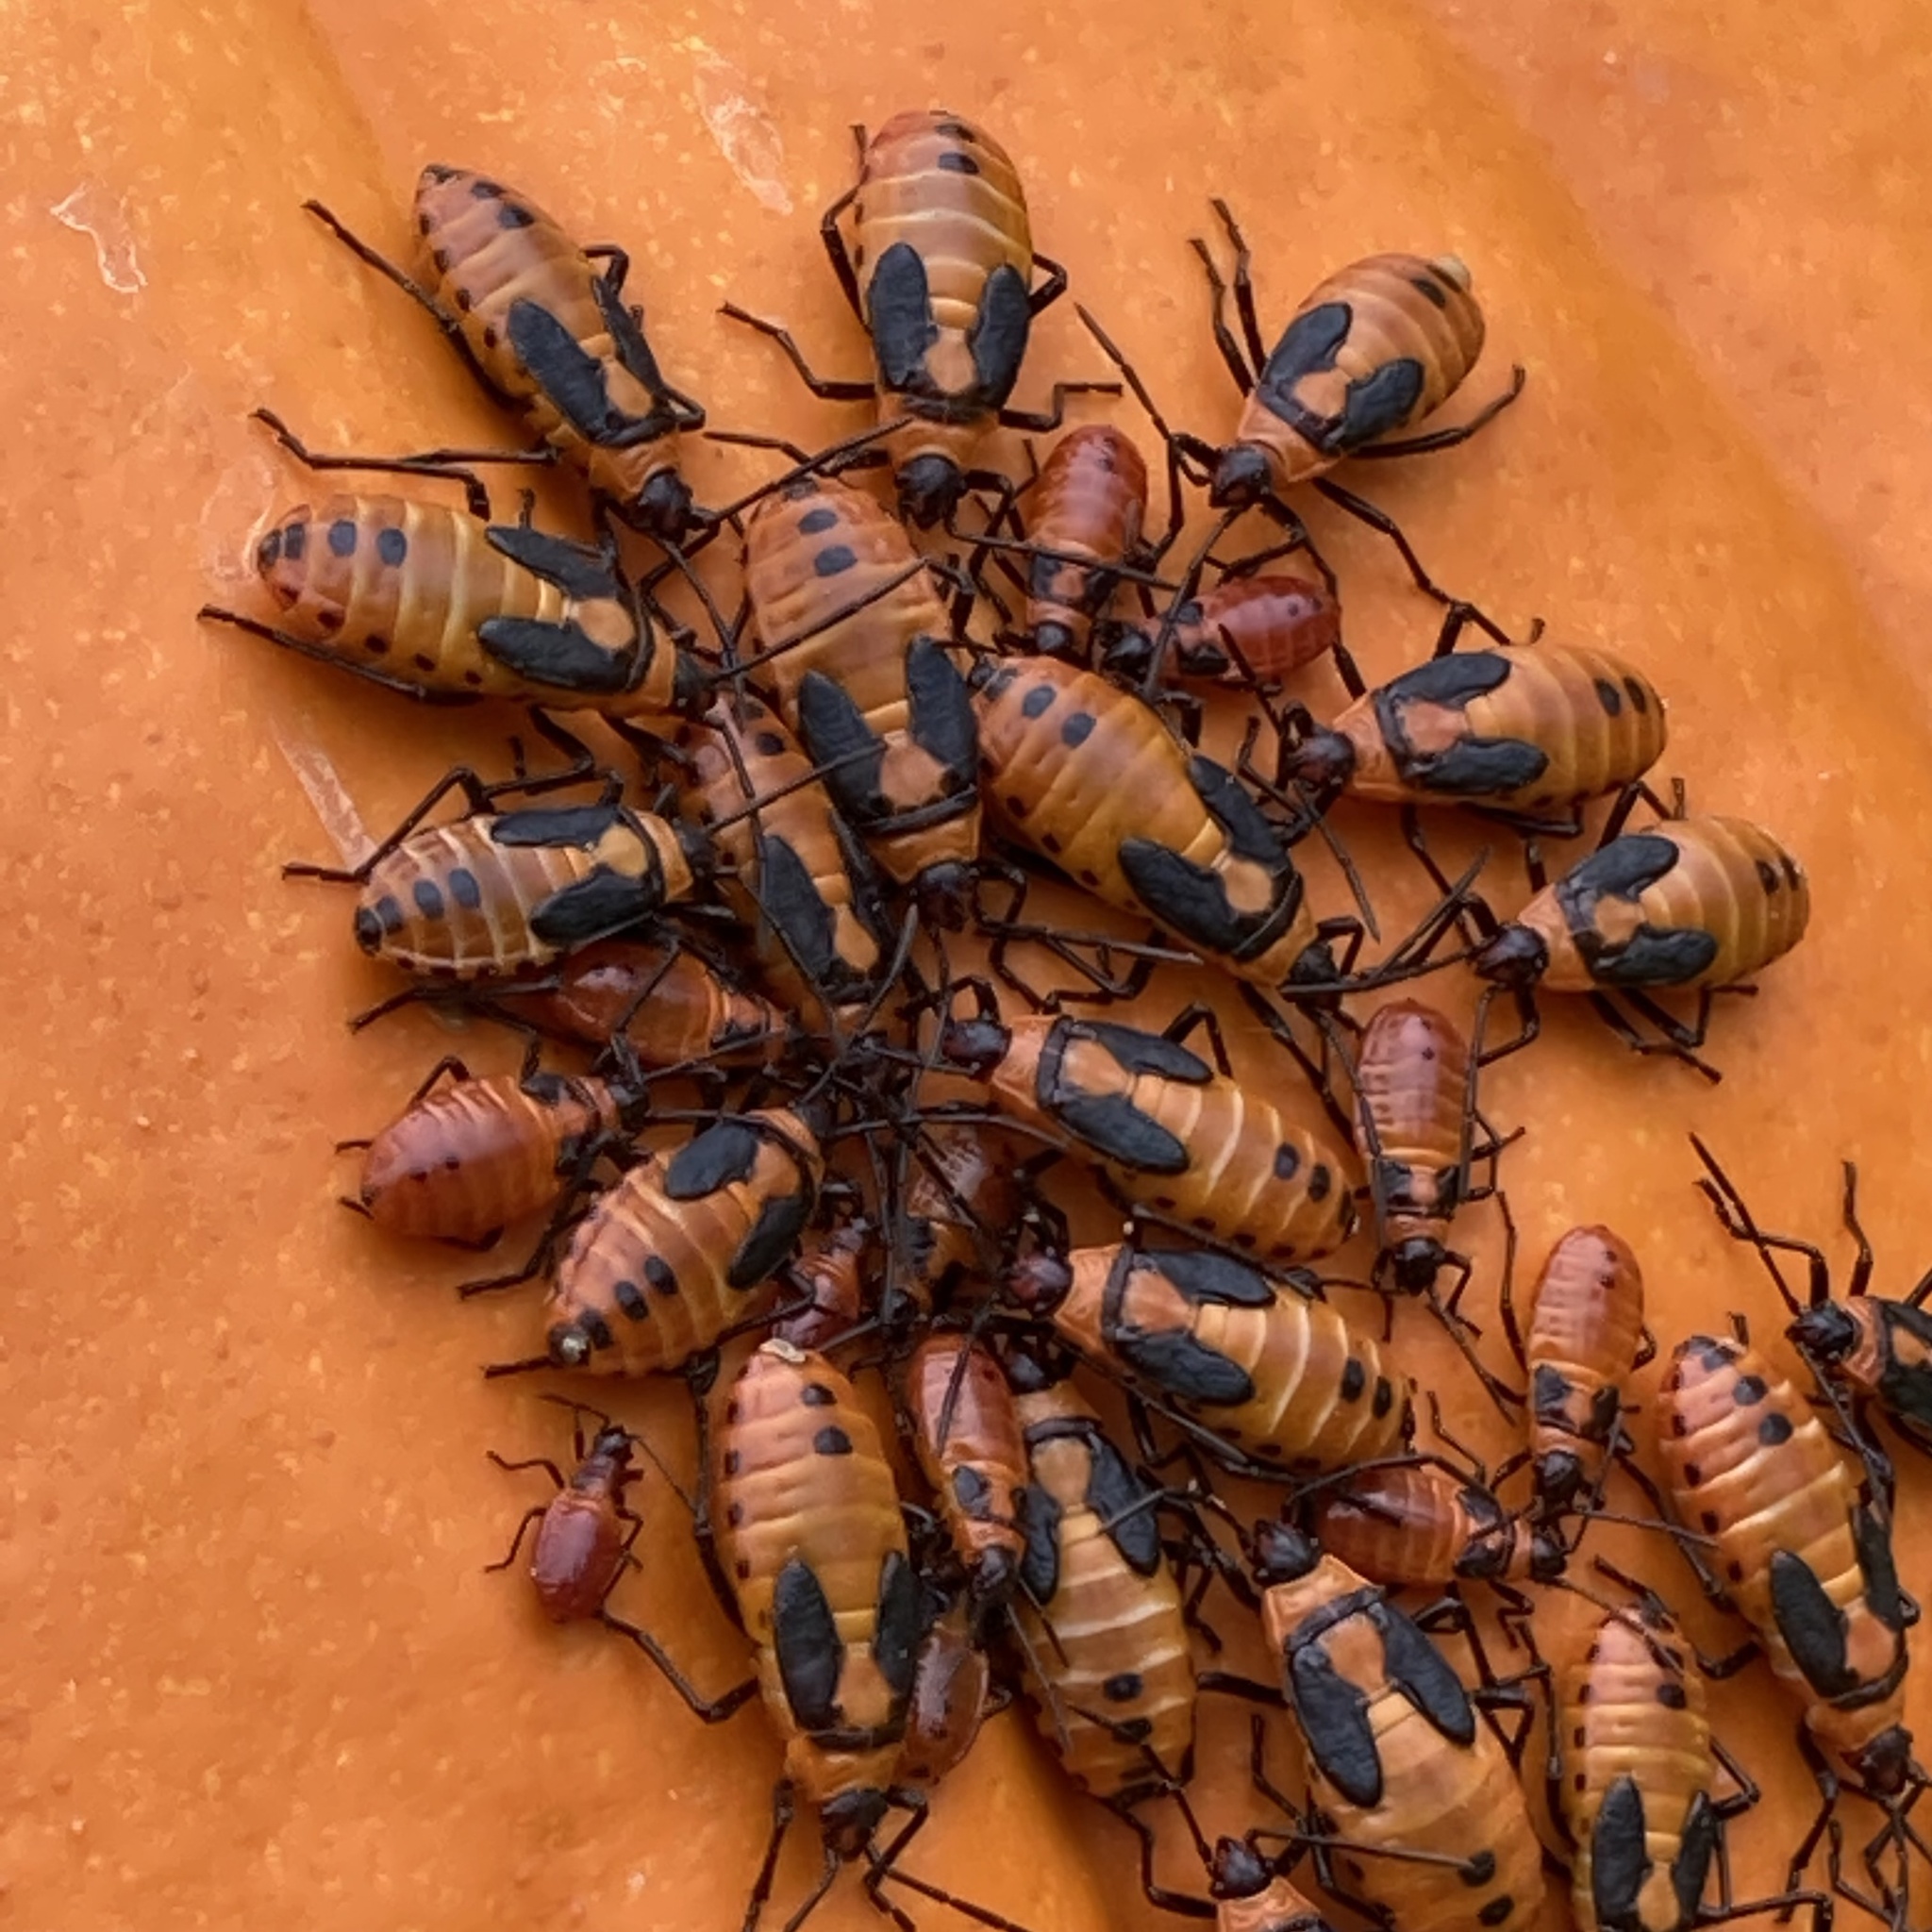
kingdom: Animalia
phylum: Arthropoda
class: Insecta
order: Hemiptera
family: Lygaeidae
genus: Oncopeltus
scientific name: Oncopeltus fasciatus
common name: Large milkweed bug
